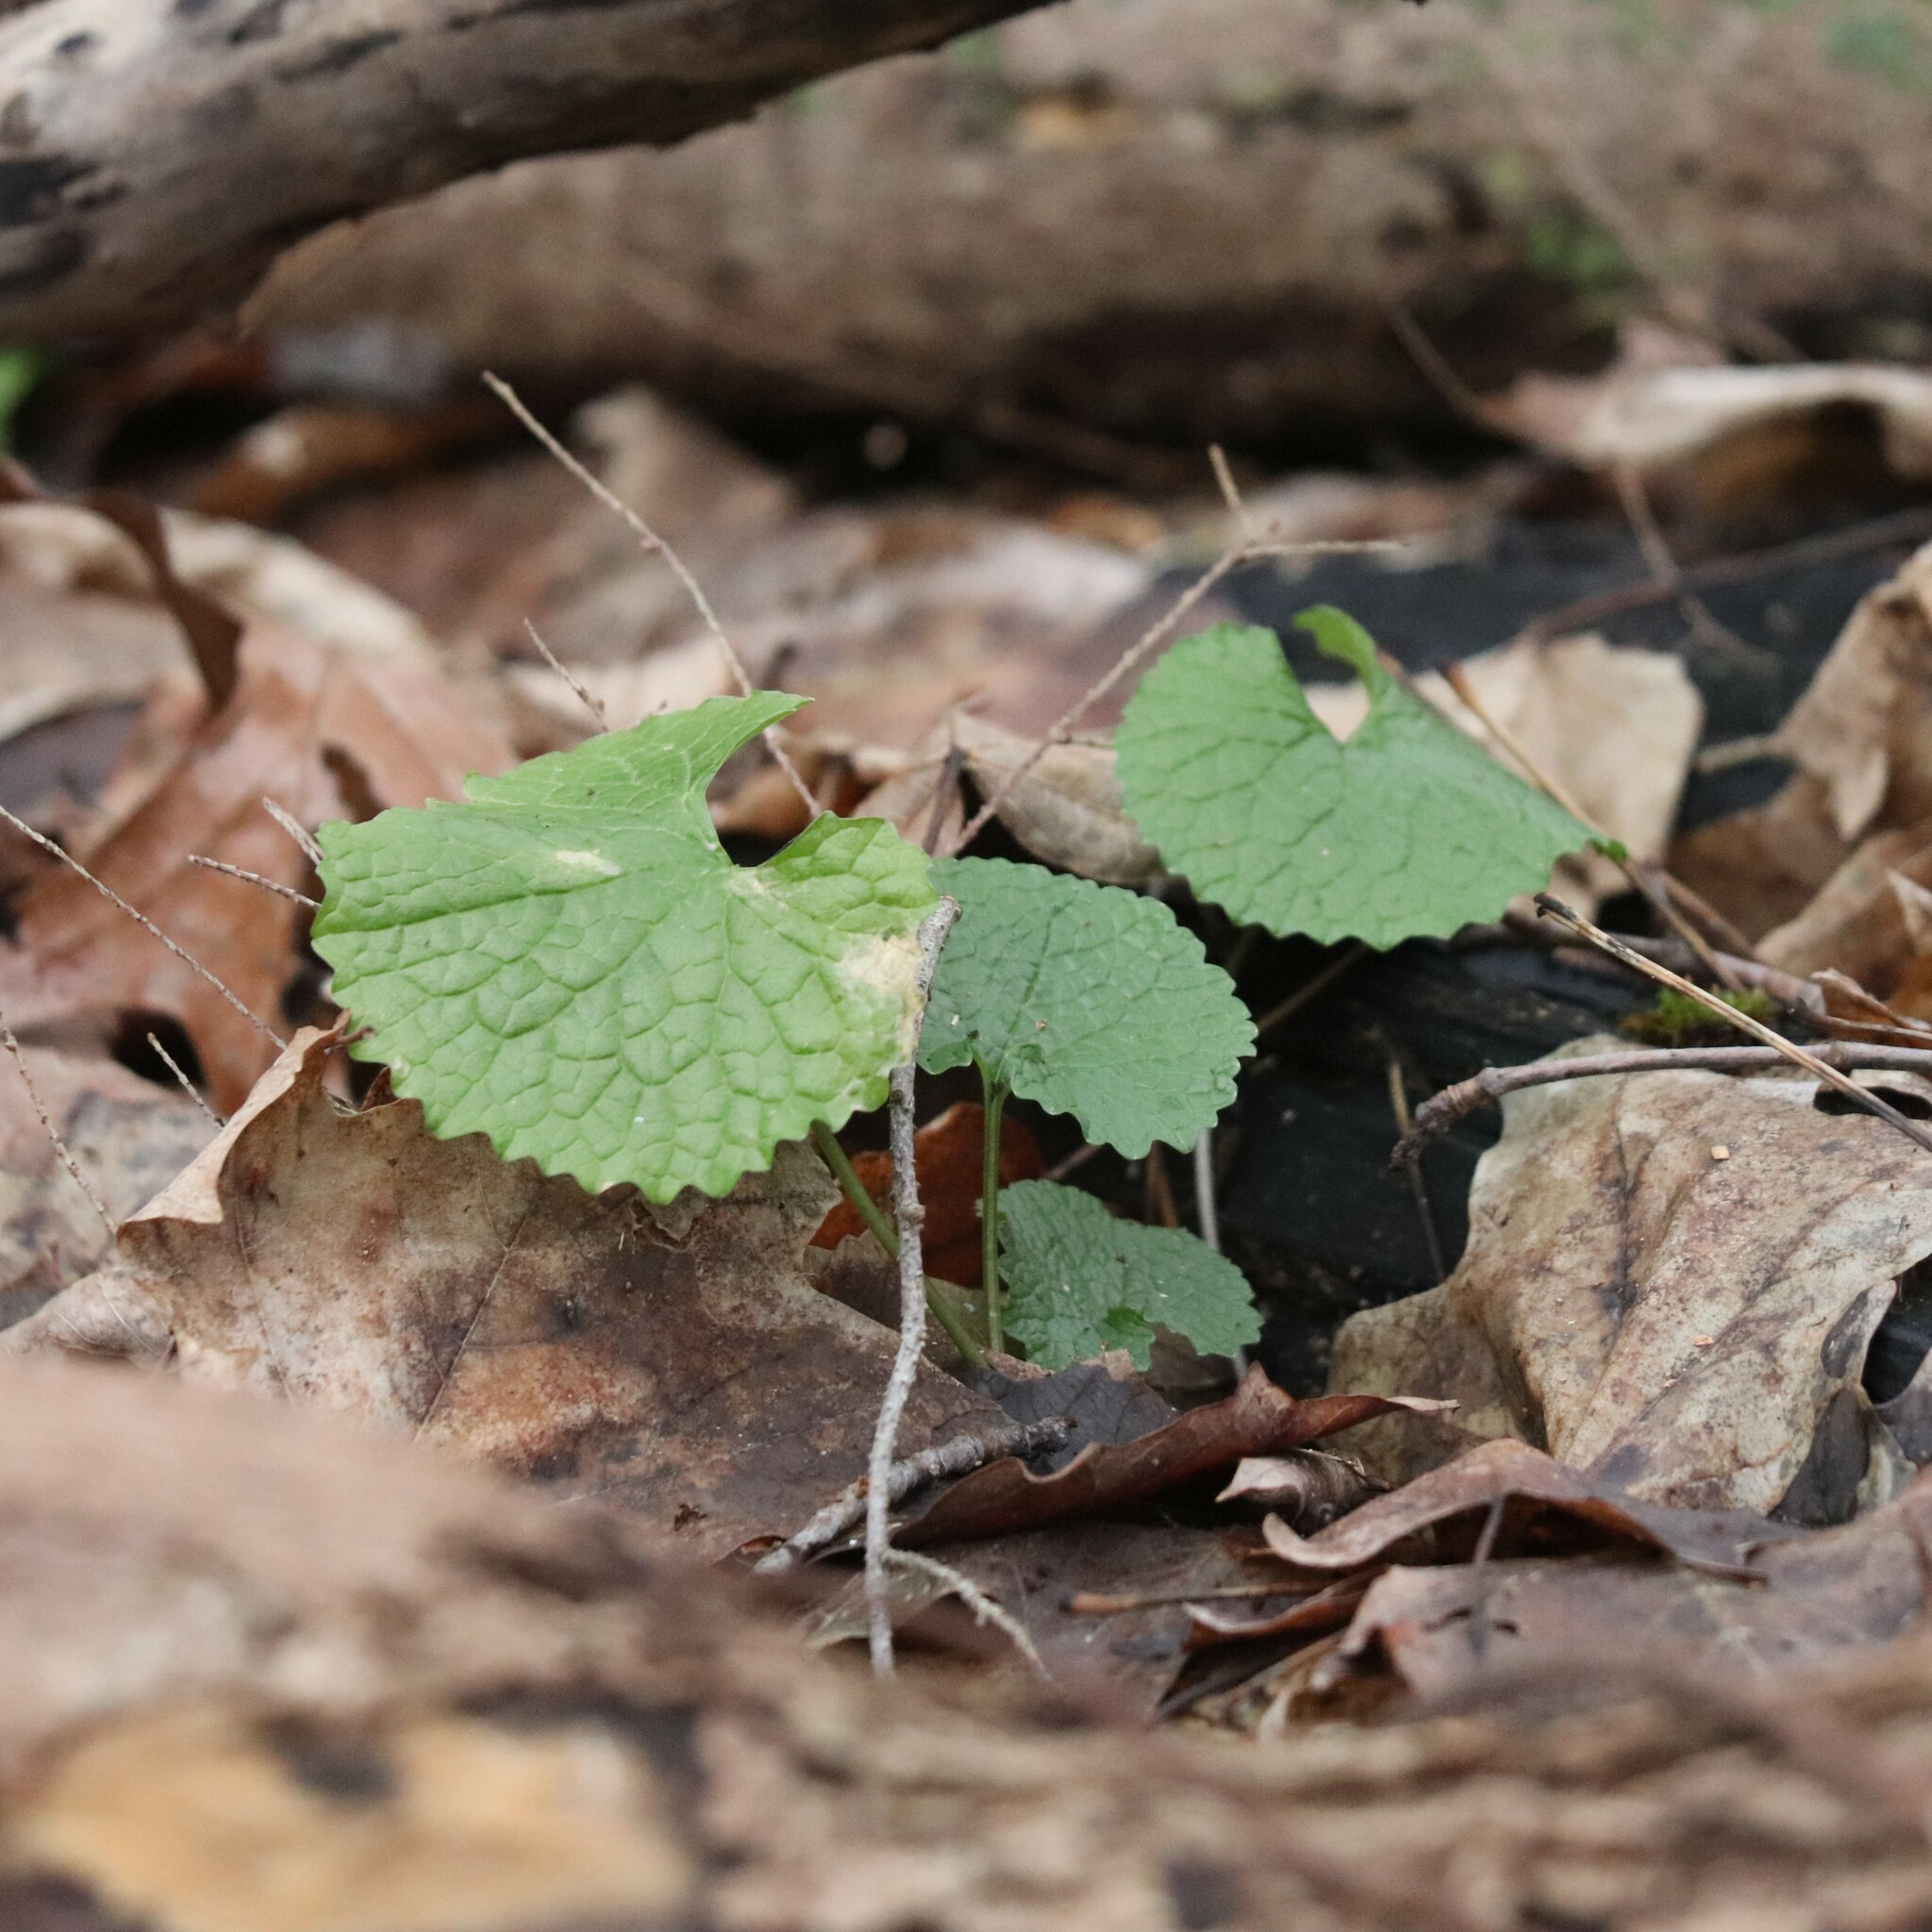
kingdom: Plantae
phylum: Tracheophyta
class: Magnoliopsida
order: Brassicales
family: Brassicaceae
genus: Alliaria
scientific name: Alliaria petiolata
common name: Garlic mustard
